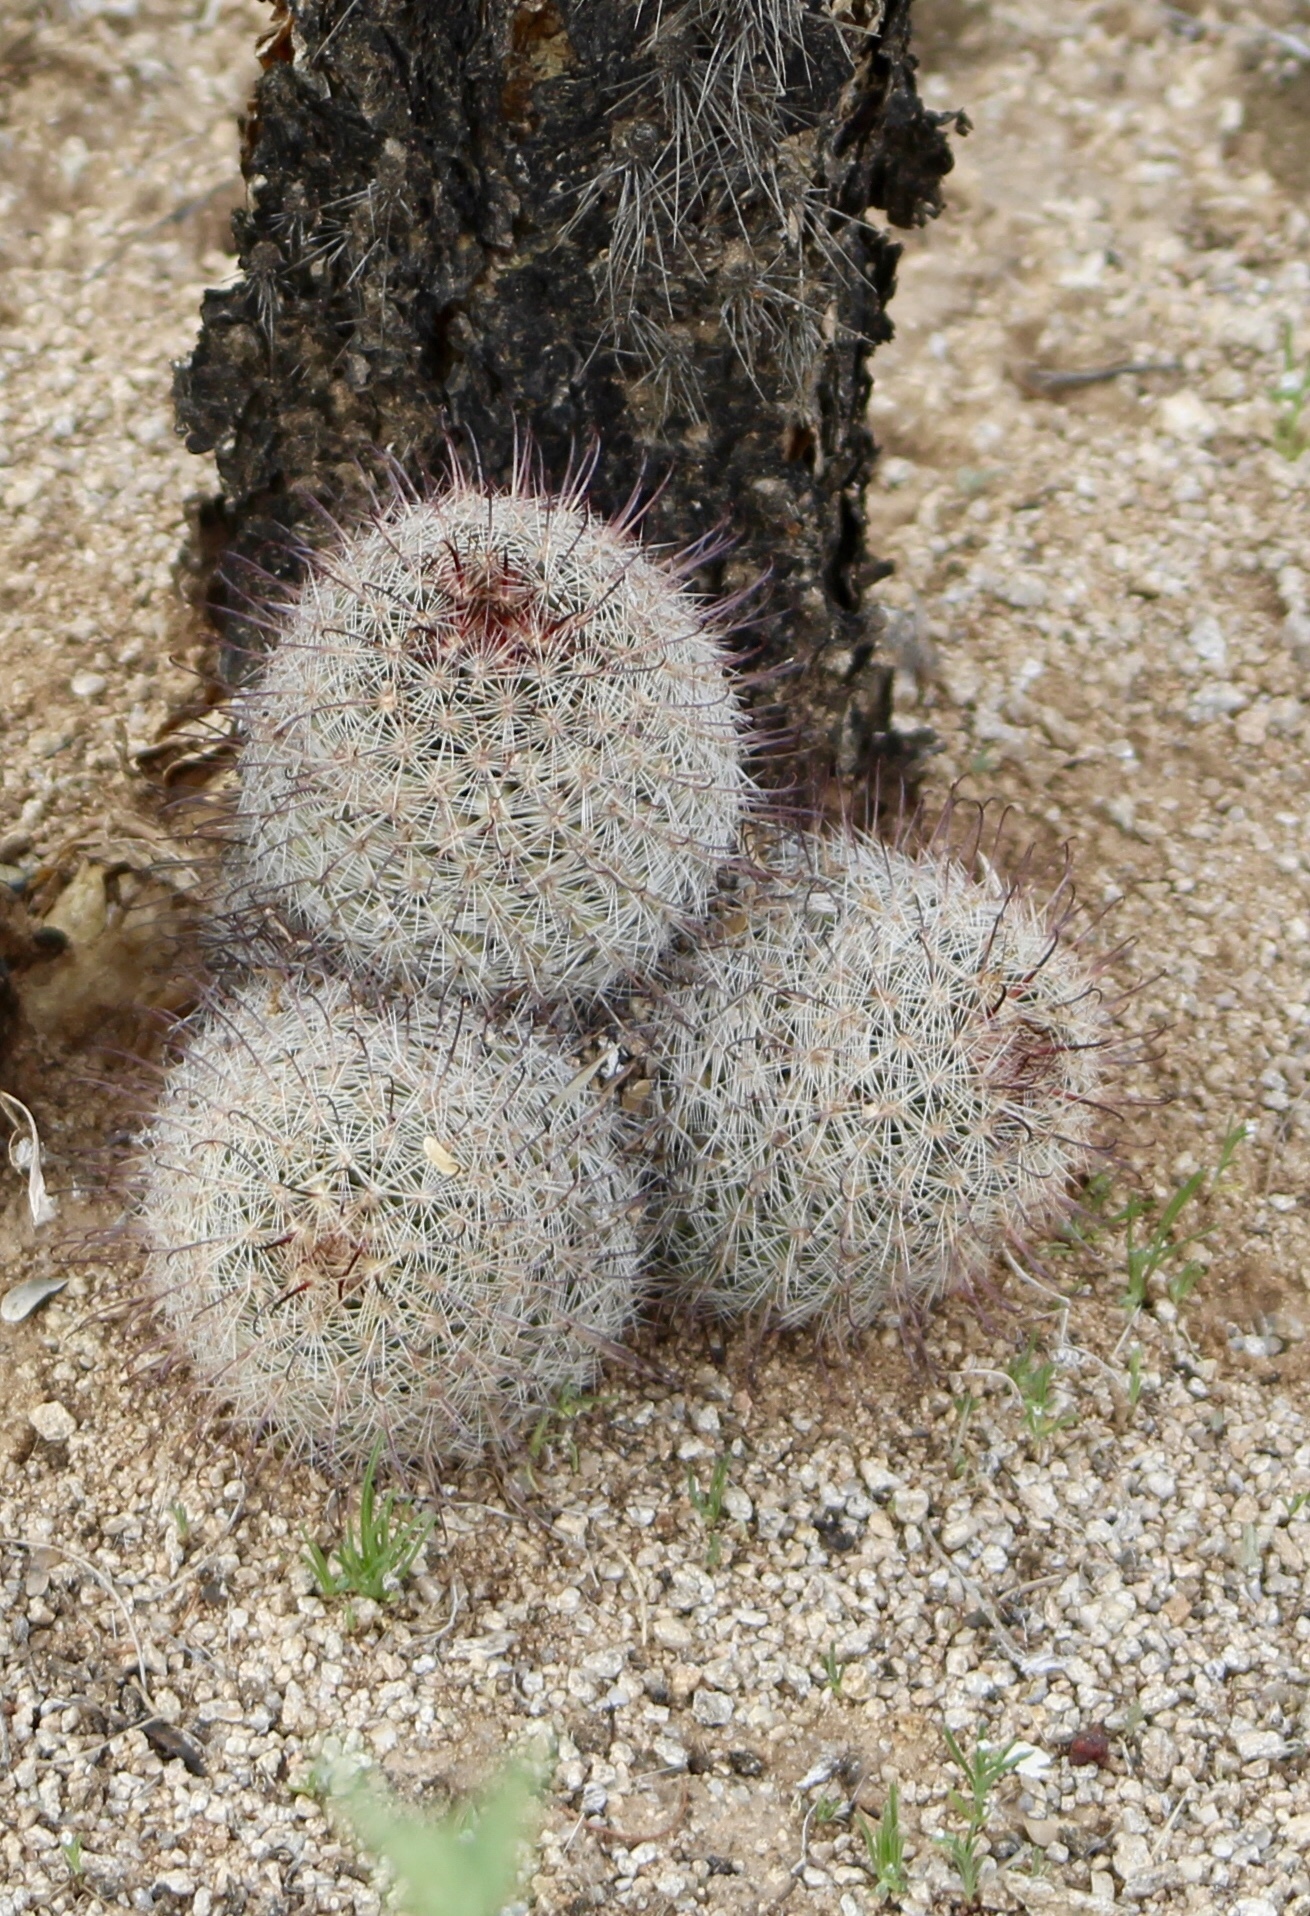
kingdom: Plantae
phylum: Tracheophyta
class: Magnoliopsida
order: Caryophyllales
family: Cactaceae
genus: Cochemiea
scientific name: Cochemiea grahamii
